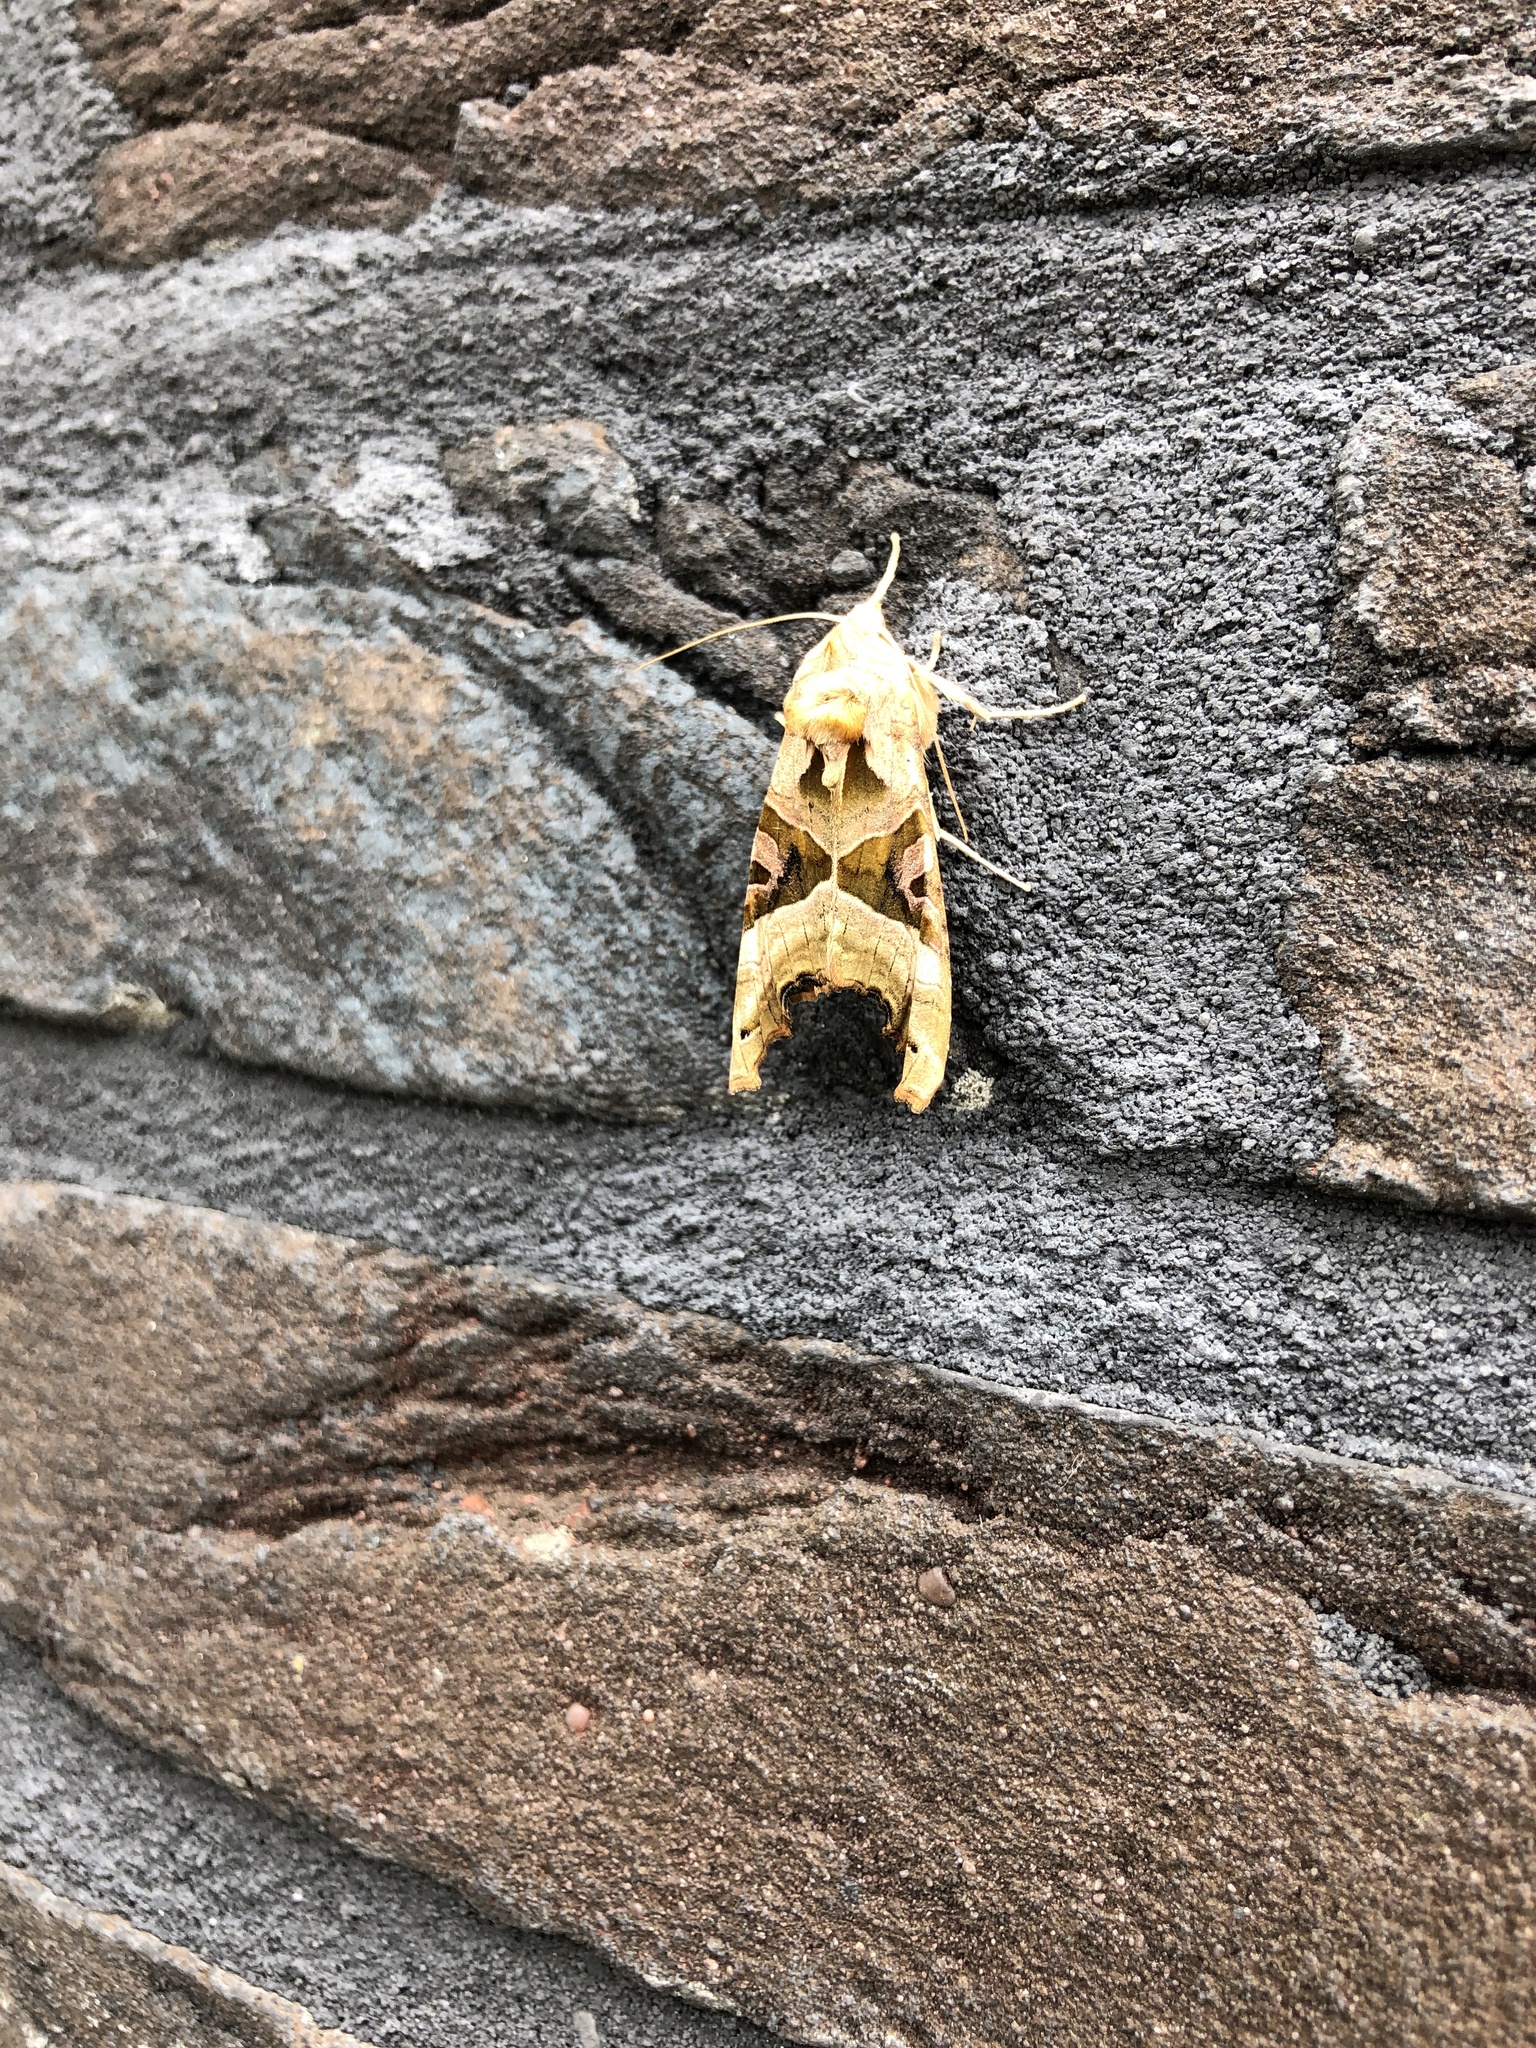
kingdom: Animalia
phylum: Arthropoda
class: Insecta
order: Lepidoptera
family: Noctuidae
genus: Phlogophora
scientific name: Phlogophora meticulosa
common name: Angle shades
